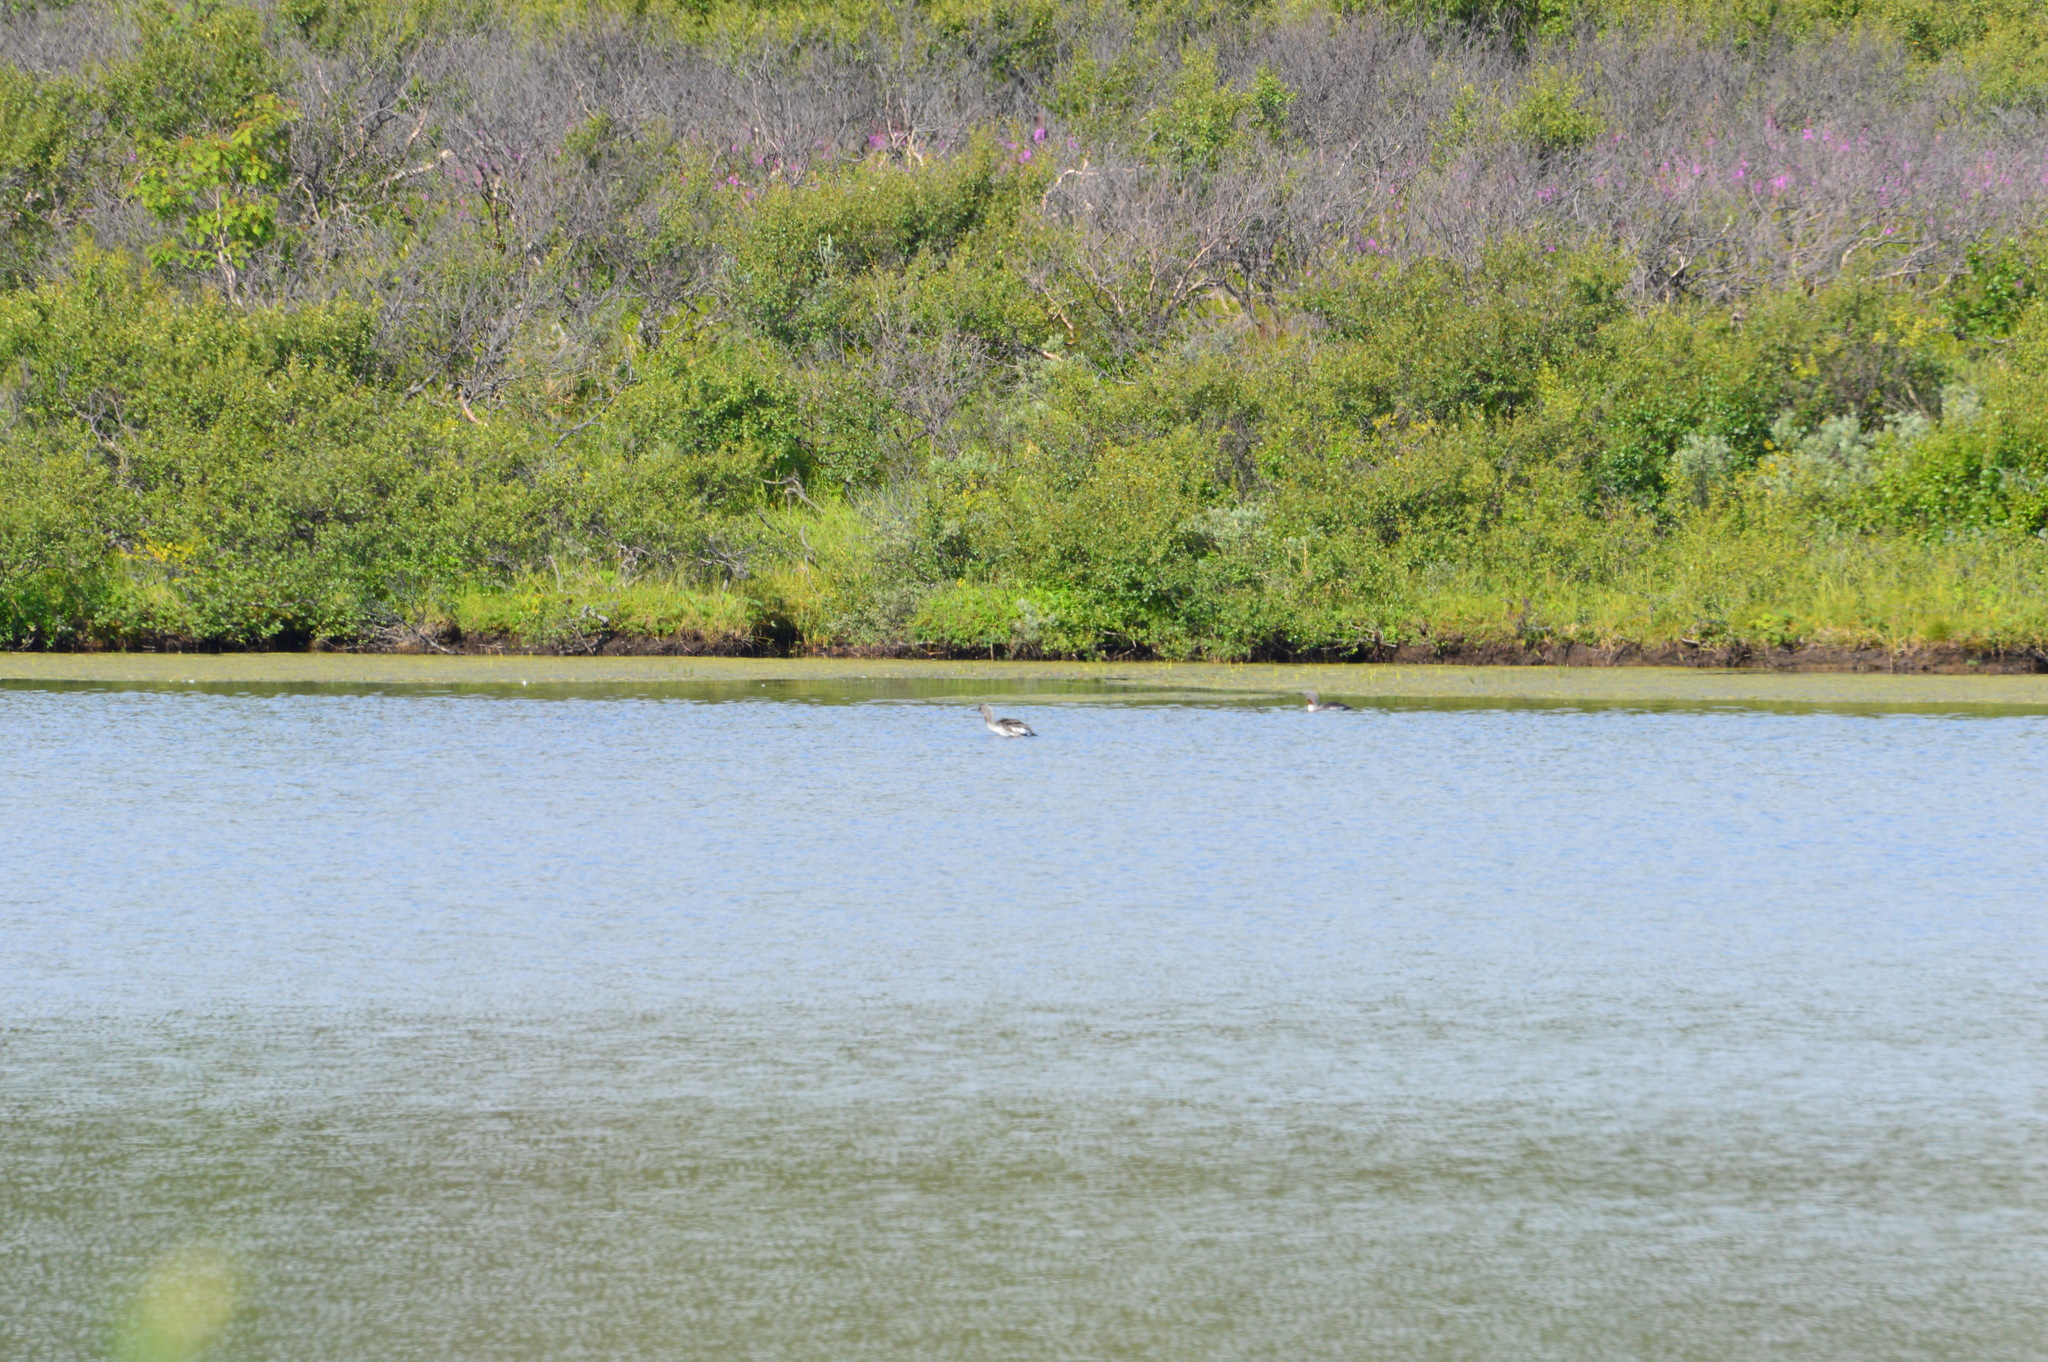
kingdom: Animalia
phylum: Chordata
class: Aves
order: Gaviiformes
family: Gaviidae
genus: Gavia
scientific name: Gavia stellata
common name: Red-throated loon
